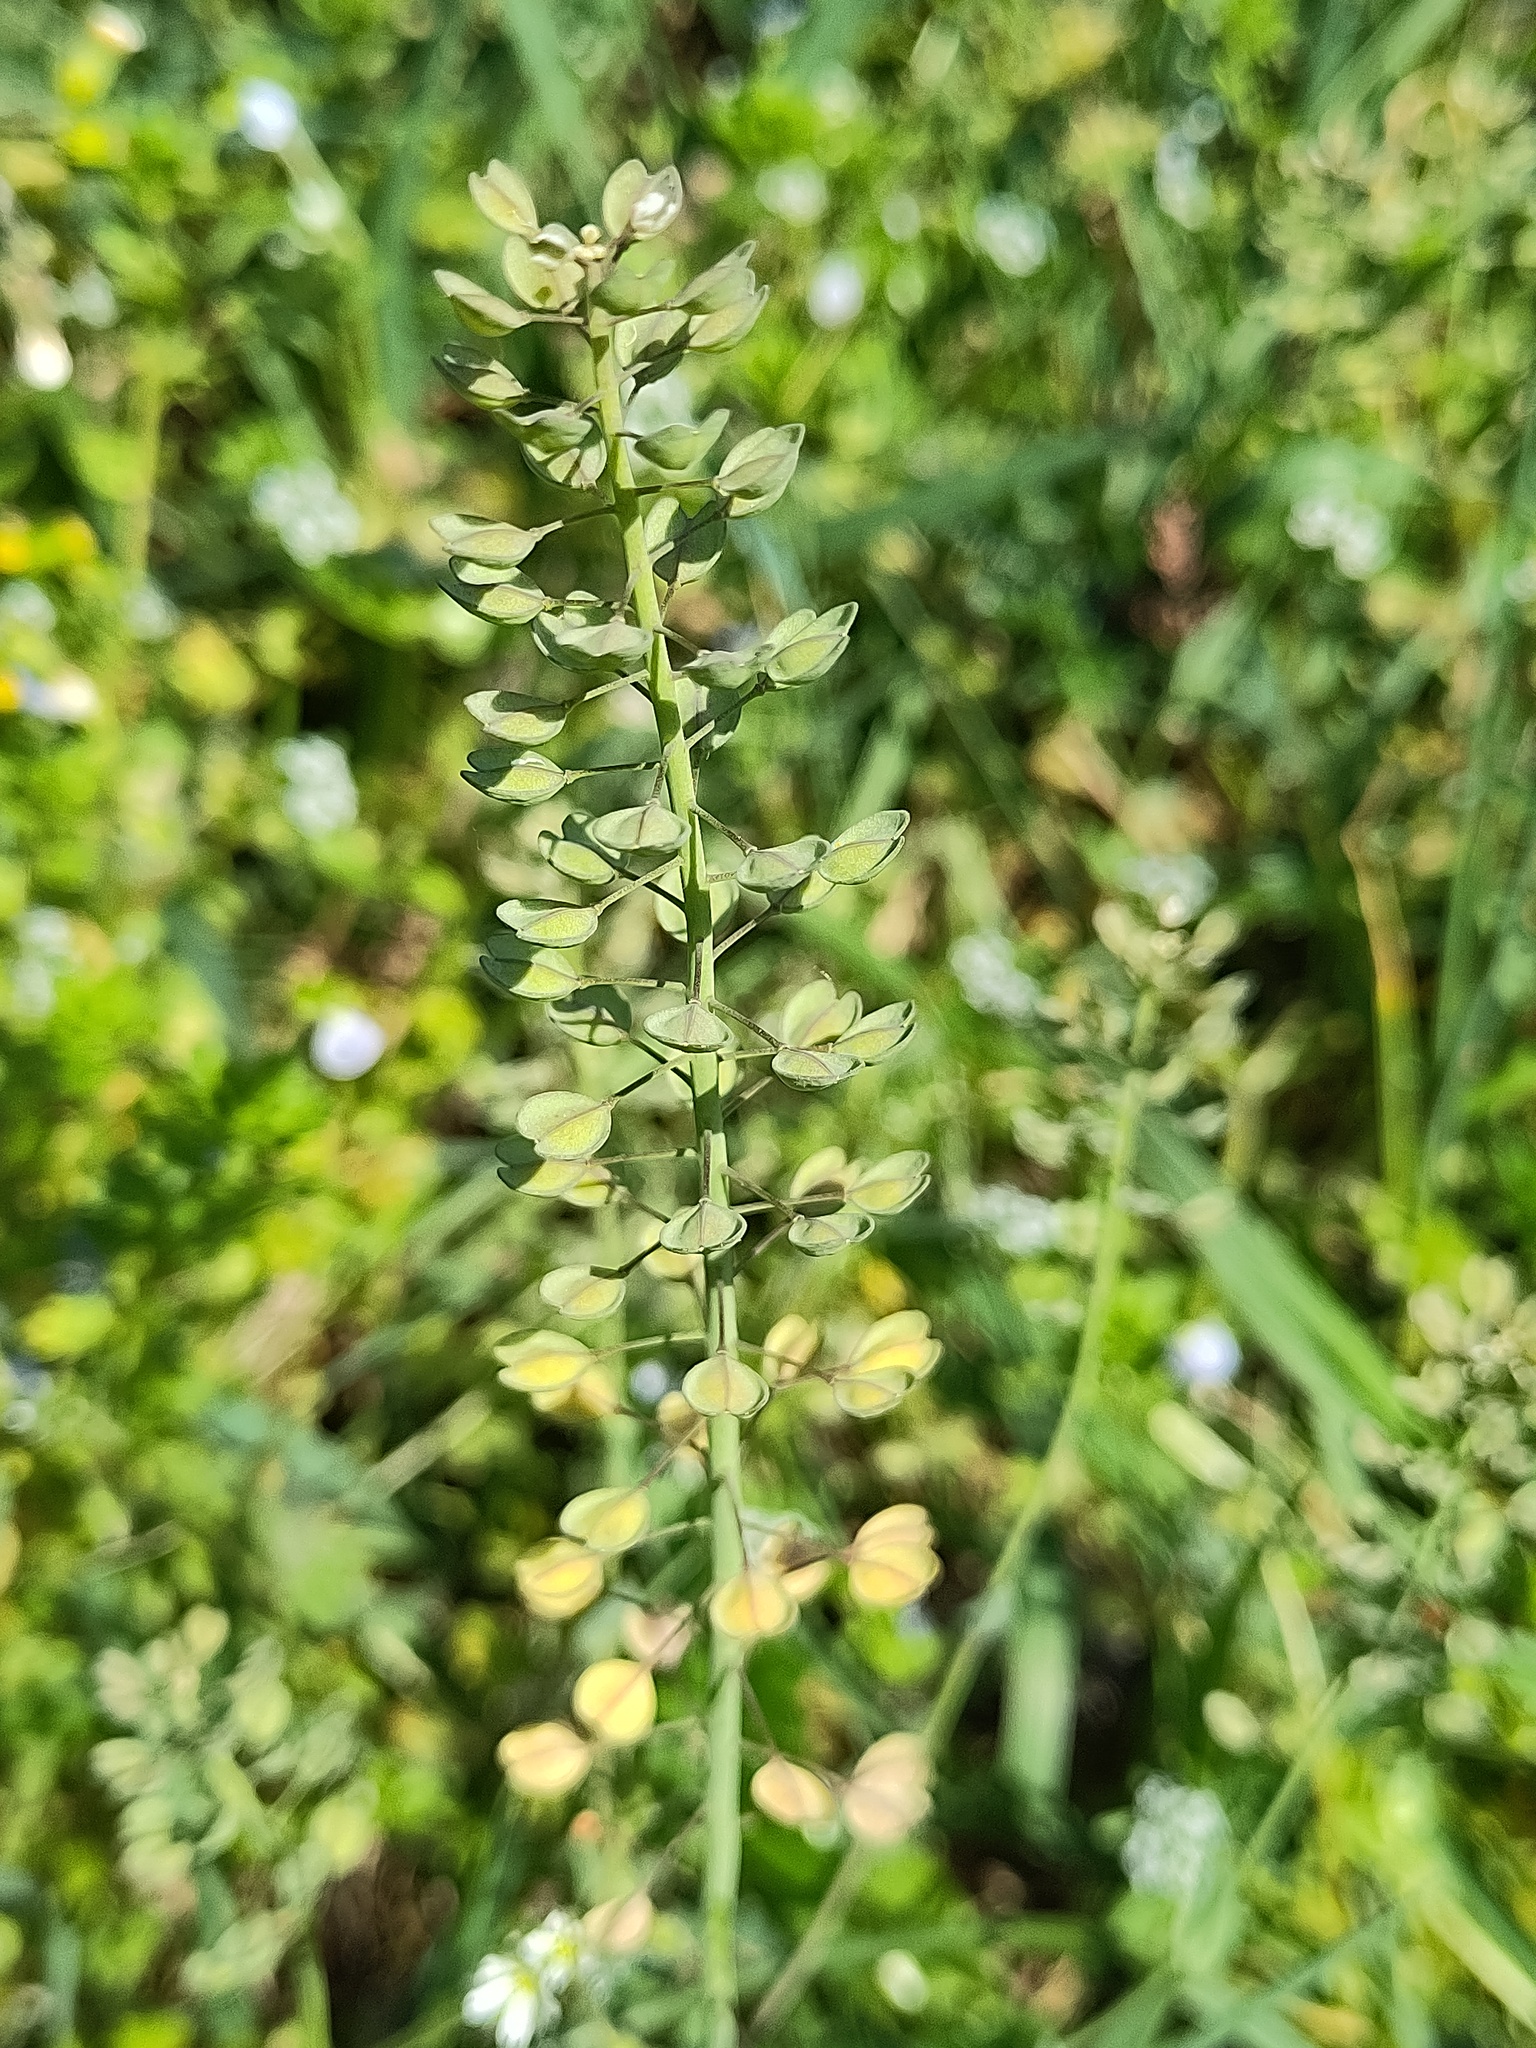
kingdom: Plantae
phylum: Tracheophyta
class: Magnoliopsida
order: Brassicales
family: Brassicaceae
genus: Noccaea
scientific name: Noccaea perfoliata
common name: Perfoliate pennycress
